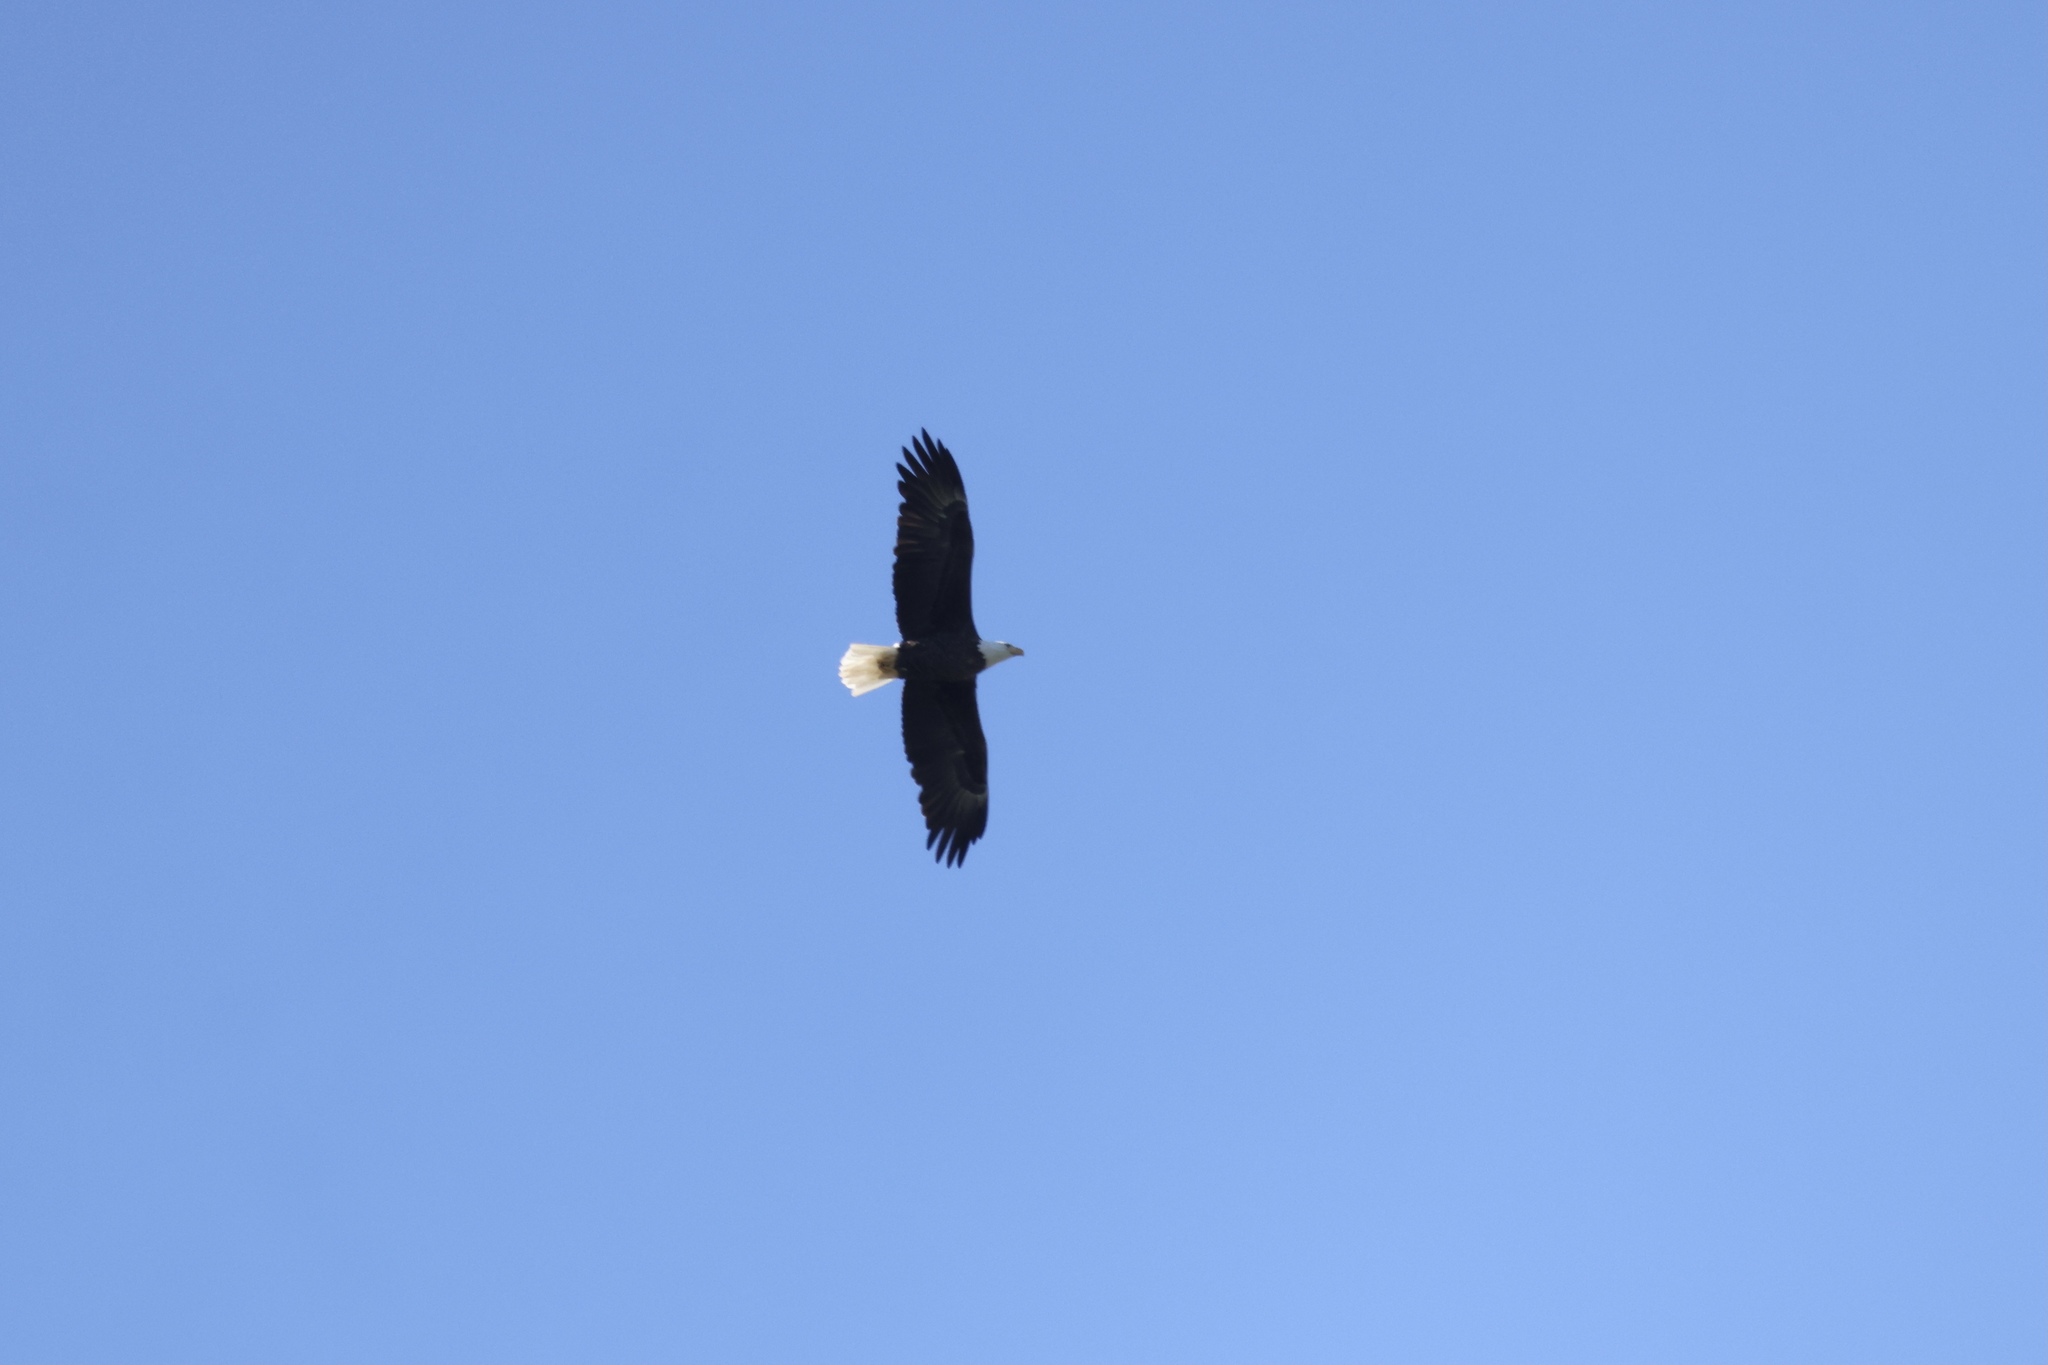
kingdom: Animalia
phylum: Chordata
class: Aves
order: Accipitriformes
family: Accipitridae
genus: Haliaeetus
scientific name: Haliaeetus leucocephalus
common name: Bald eagle
